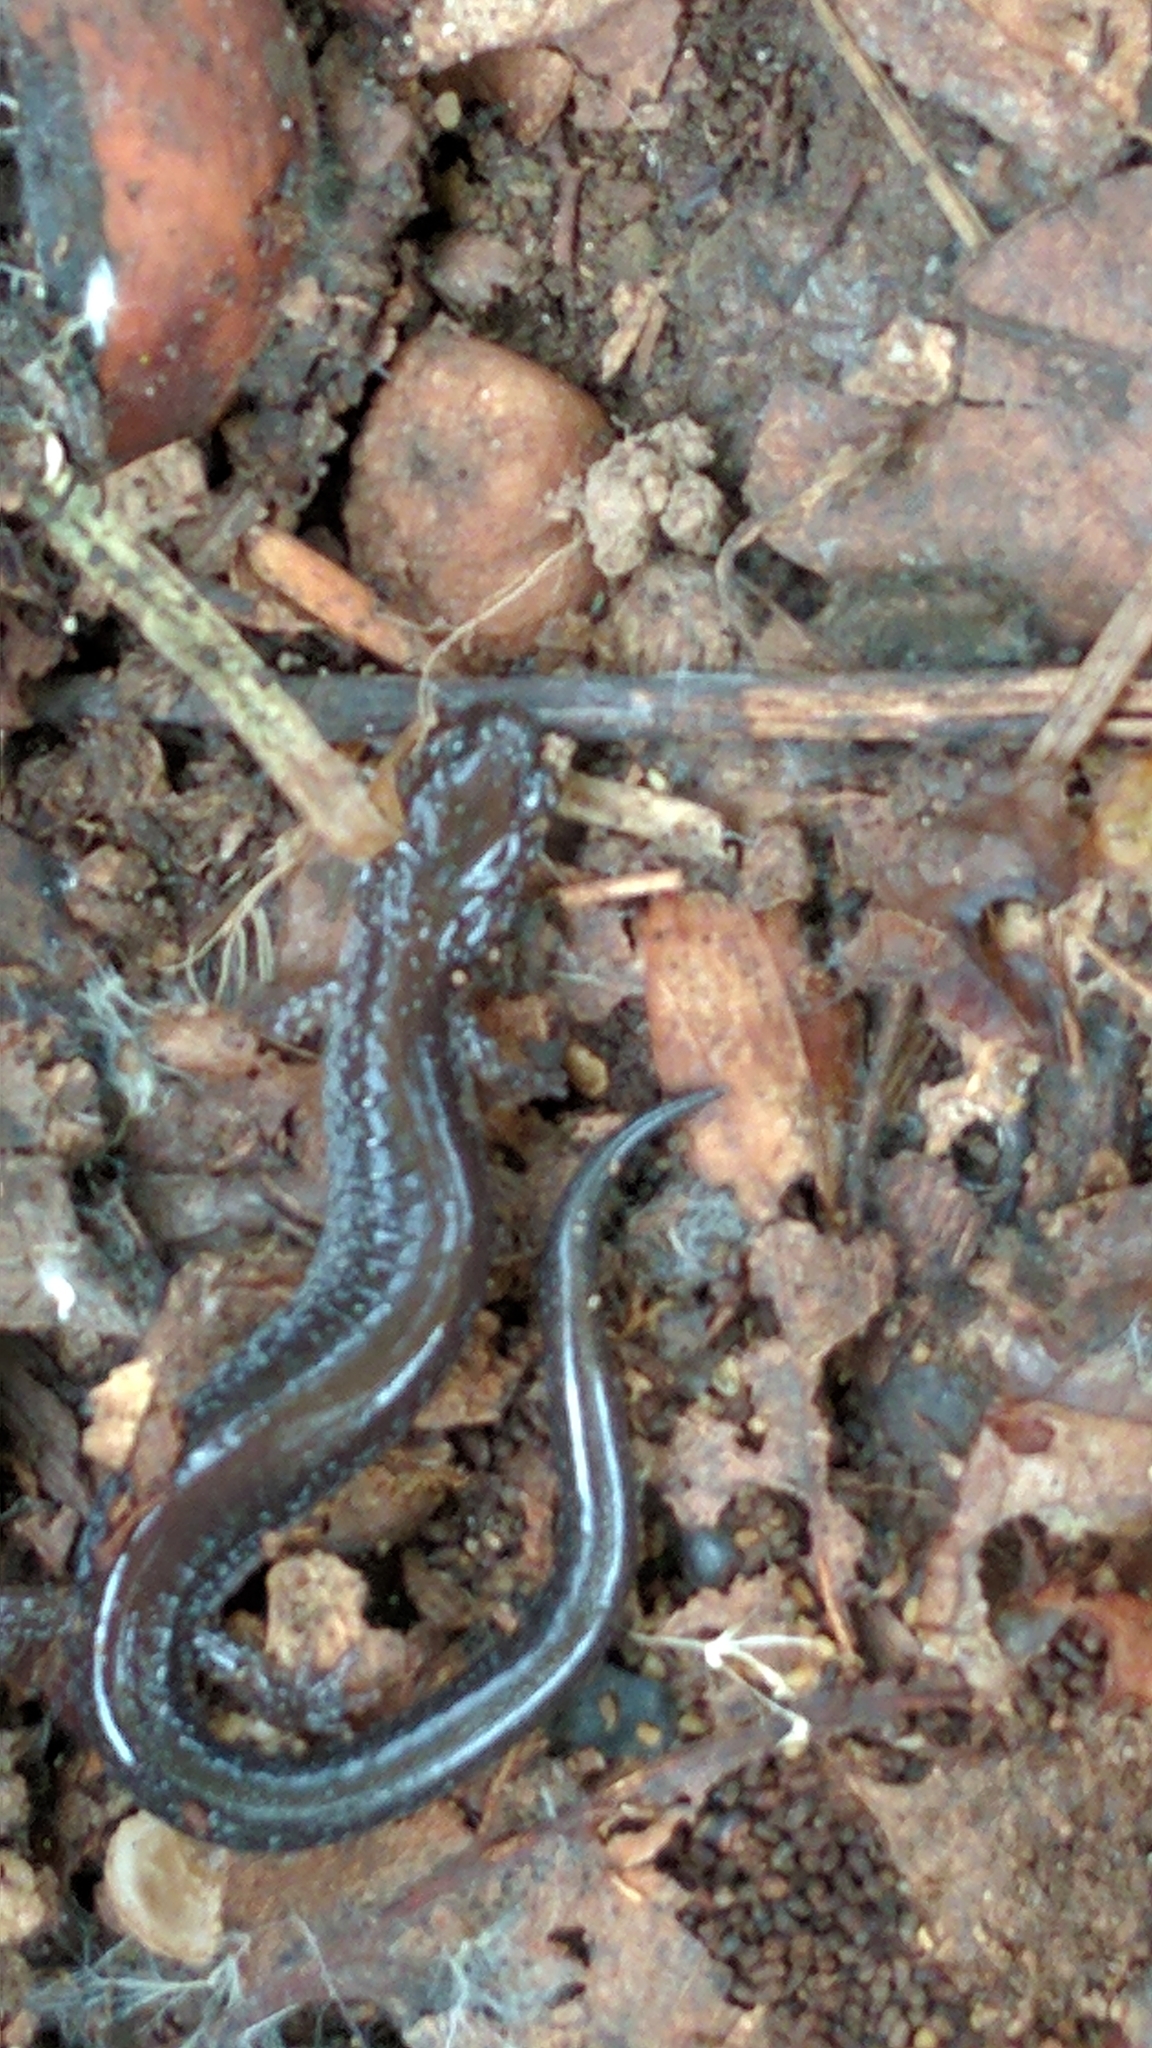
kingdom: Animalia
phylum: Chordata
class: Amphibia
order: Caudata
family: Plethodontidae
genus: Plethodon
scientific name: Plethodon cinereus
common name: Redback salamander
